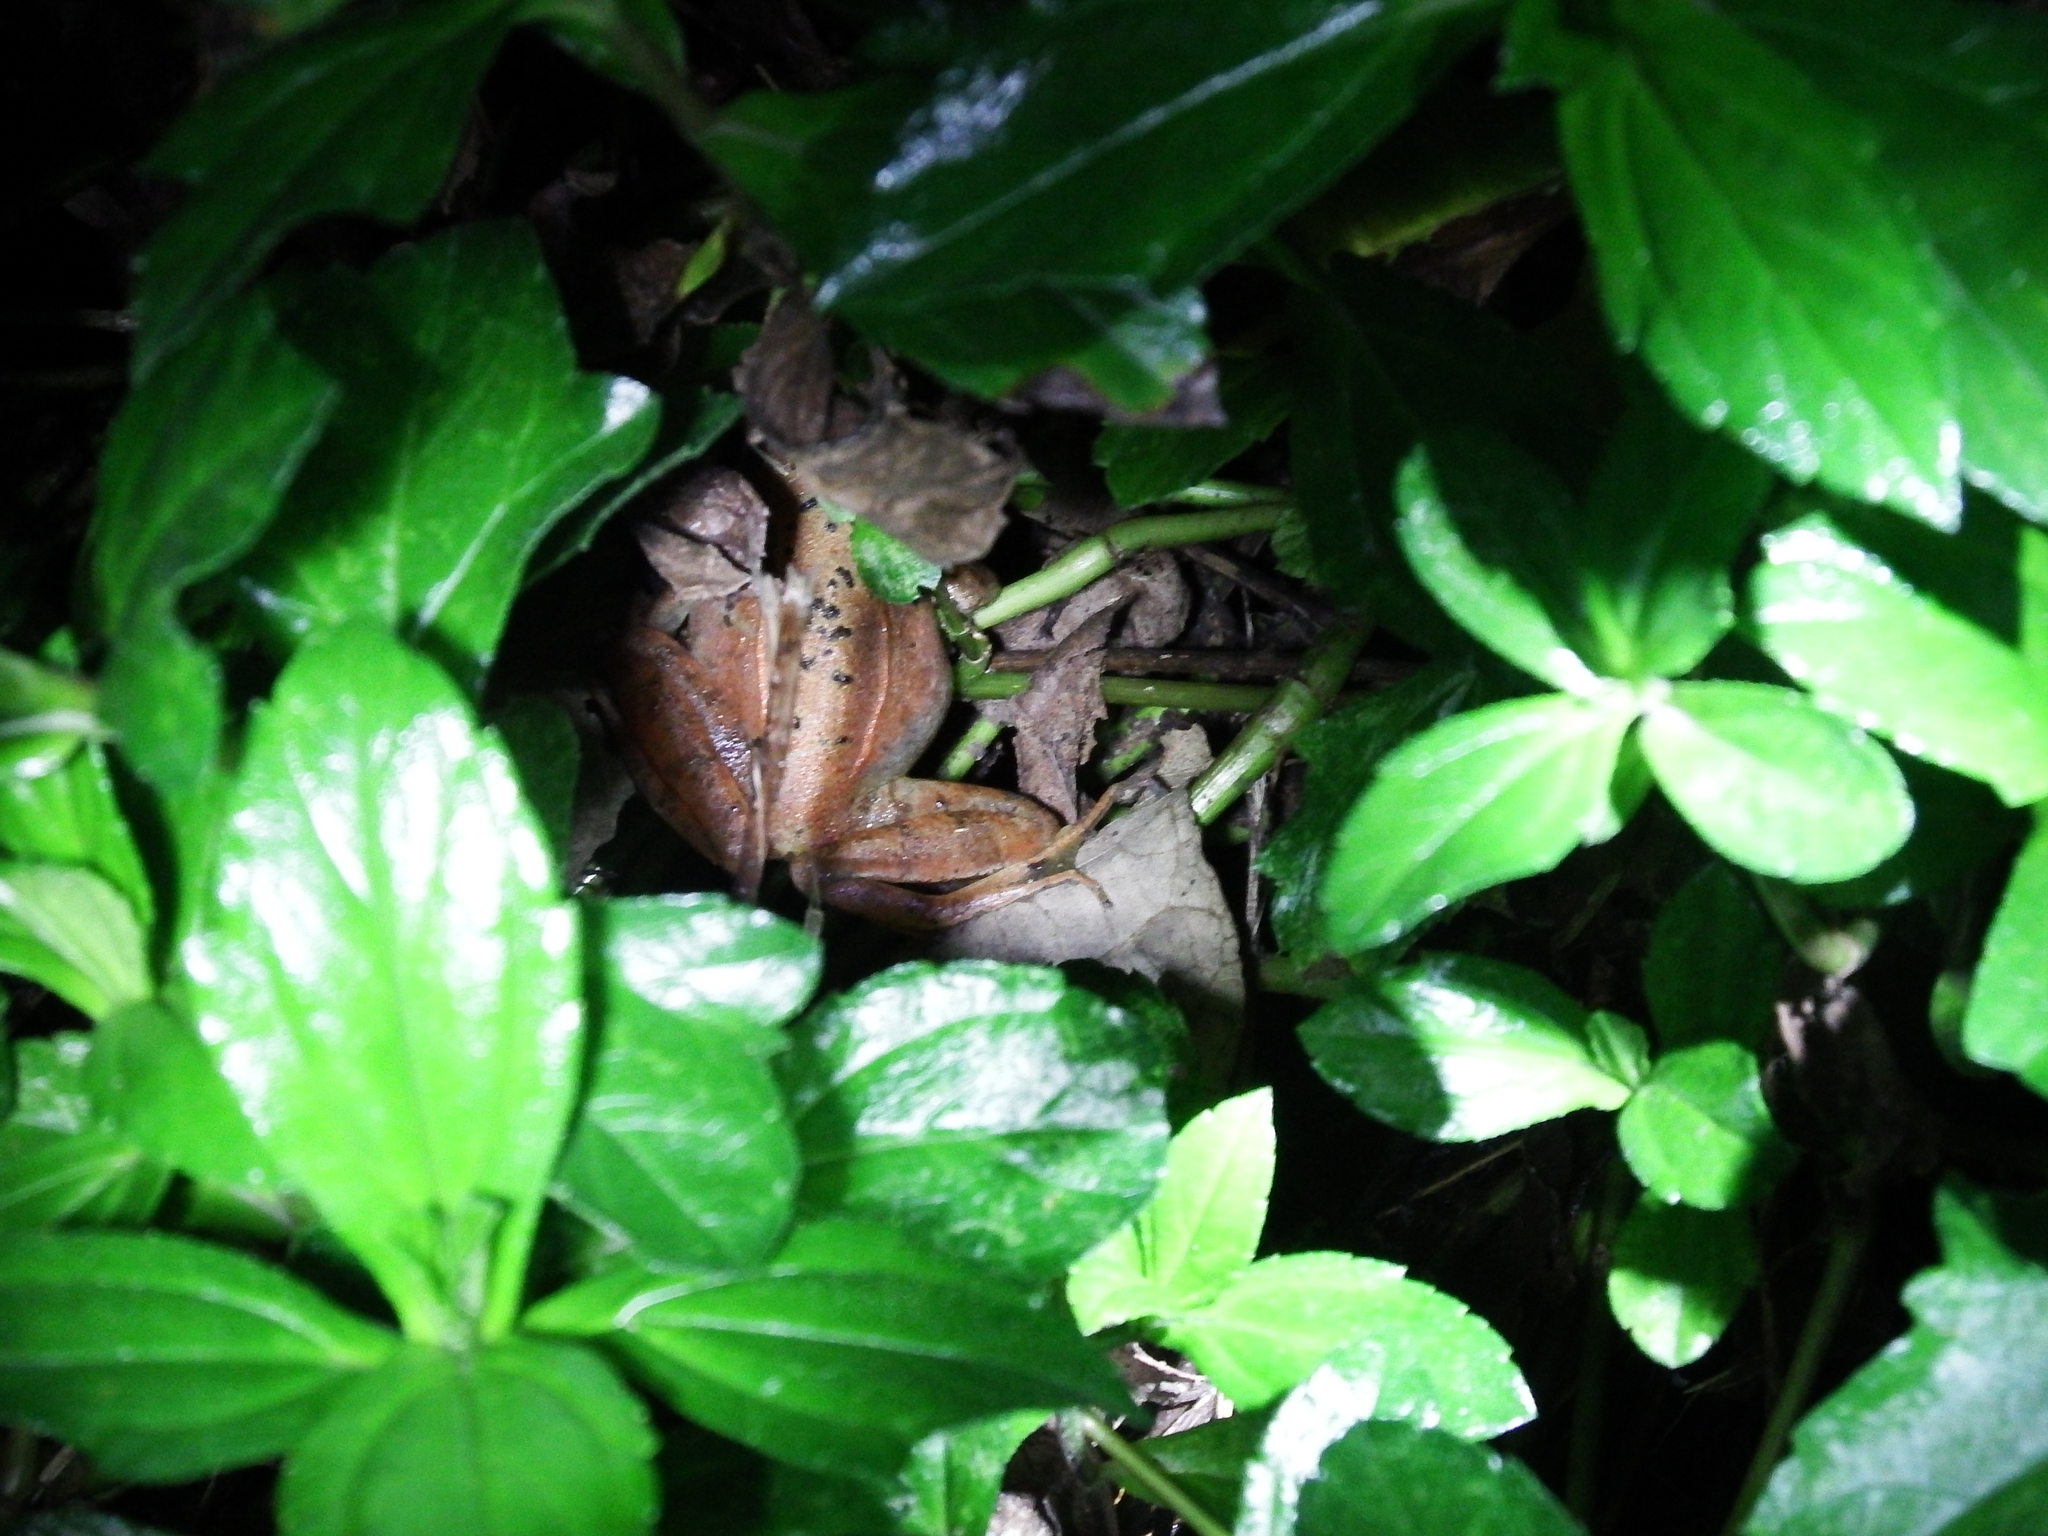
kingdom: Animalia
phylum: Chordata
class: Amphibia
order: Anura
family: Ranidae
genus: Rana
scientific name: Rana longicrus
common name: Long-legged brown frog
